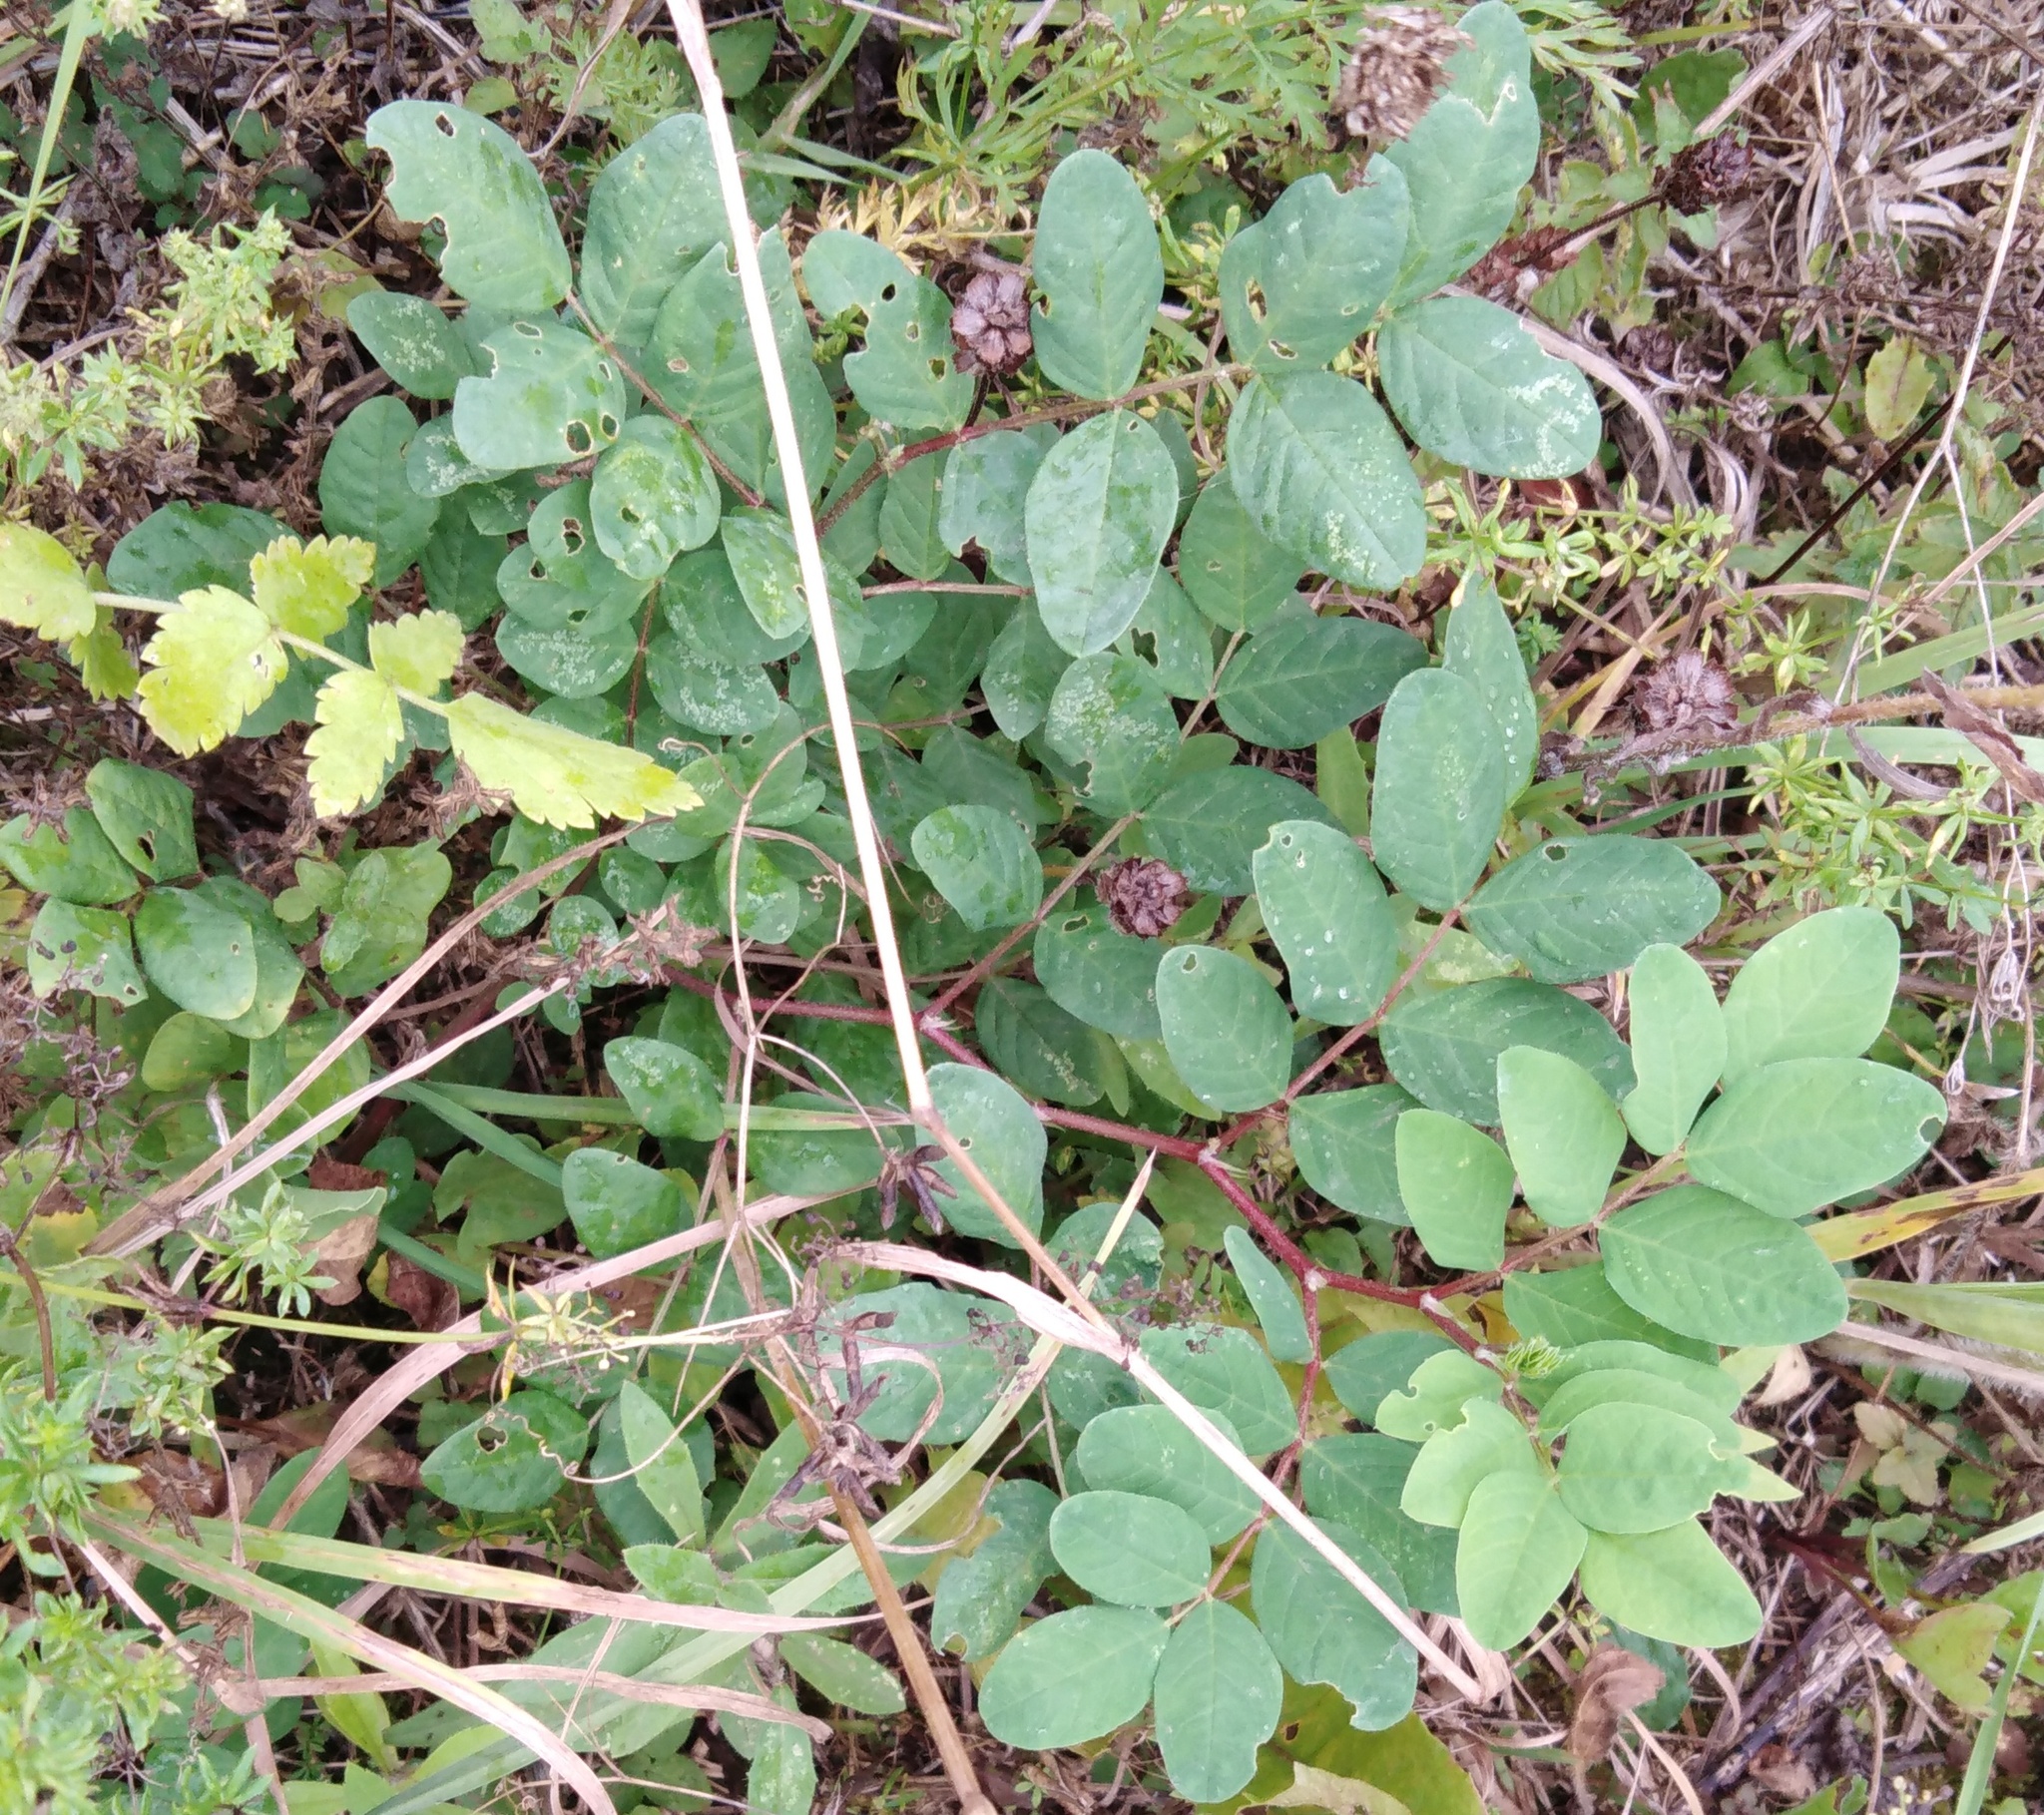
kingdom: Plantae
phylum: Tracheophyta
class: Magnoliopsida
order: Fabales
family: Fabaceae
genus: Astragalus
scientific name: Astragalus glycyphyllos
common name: Wild liquorice
